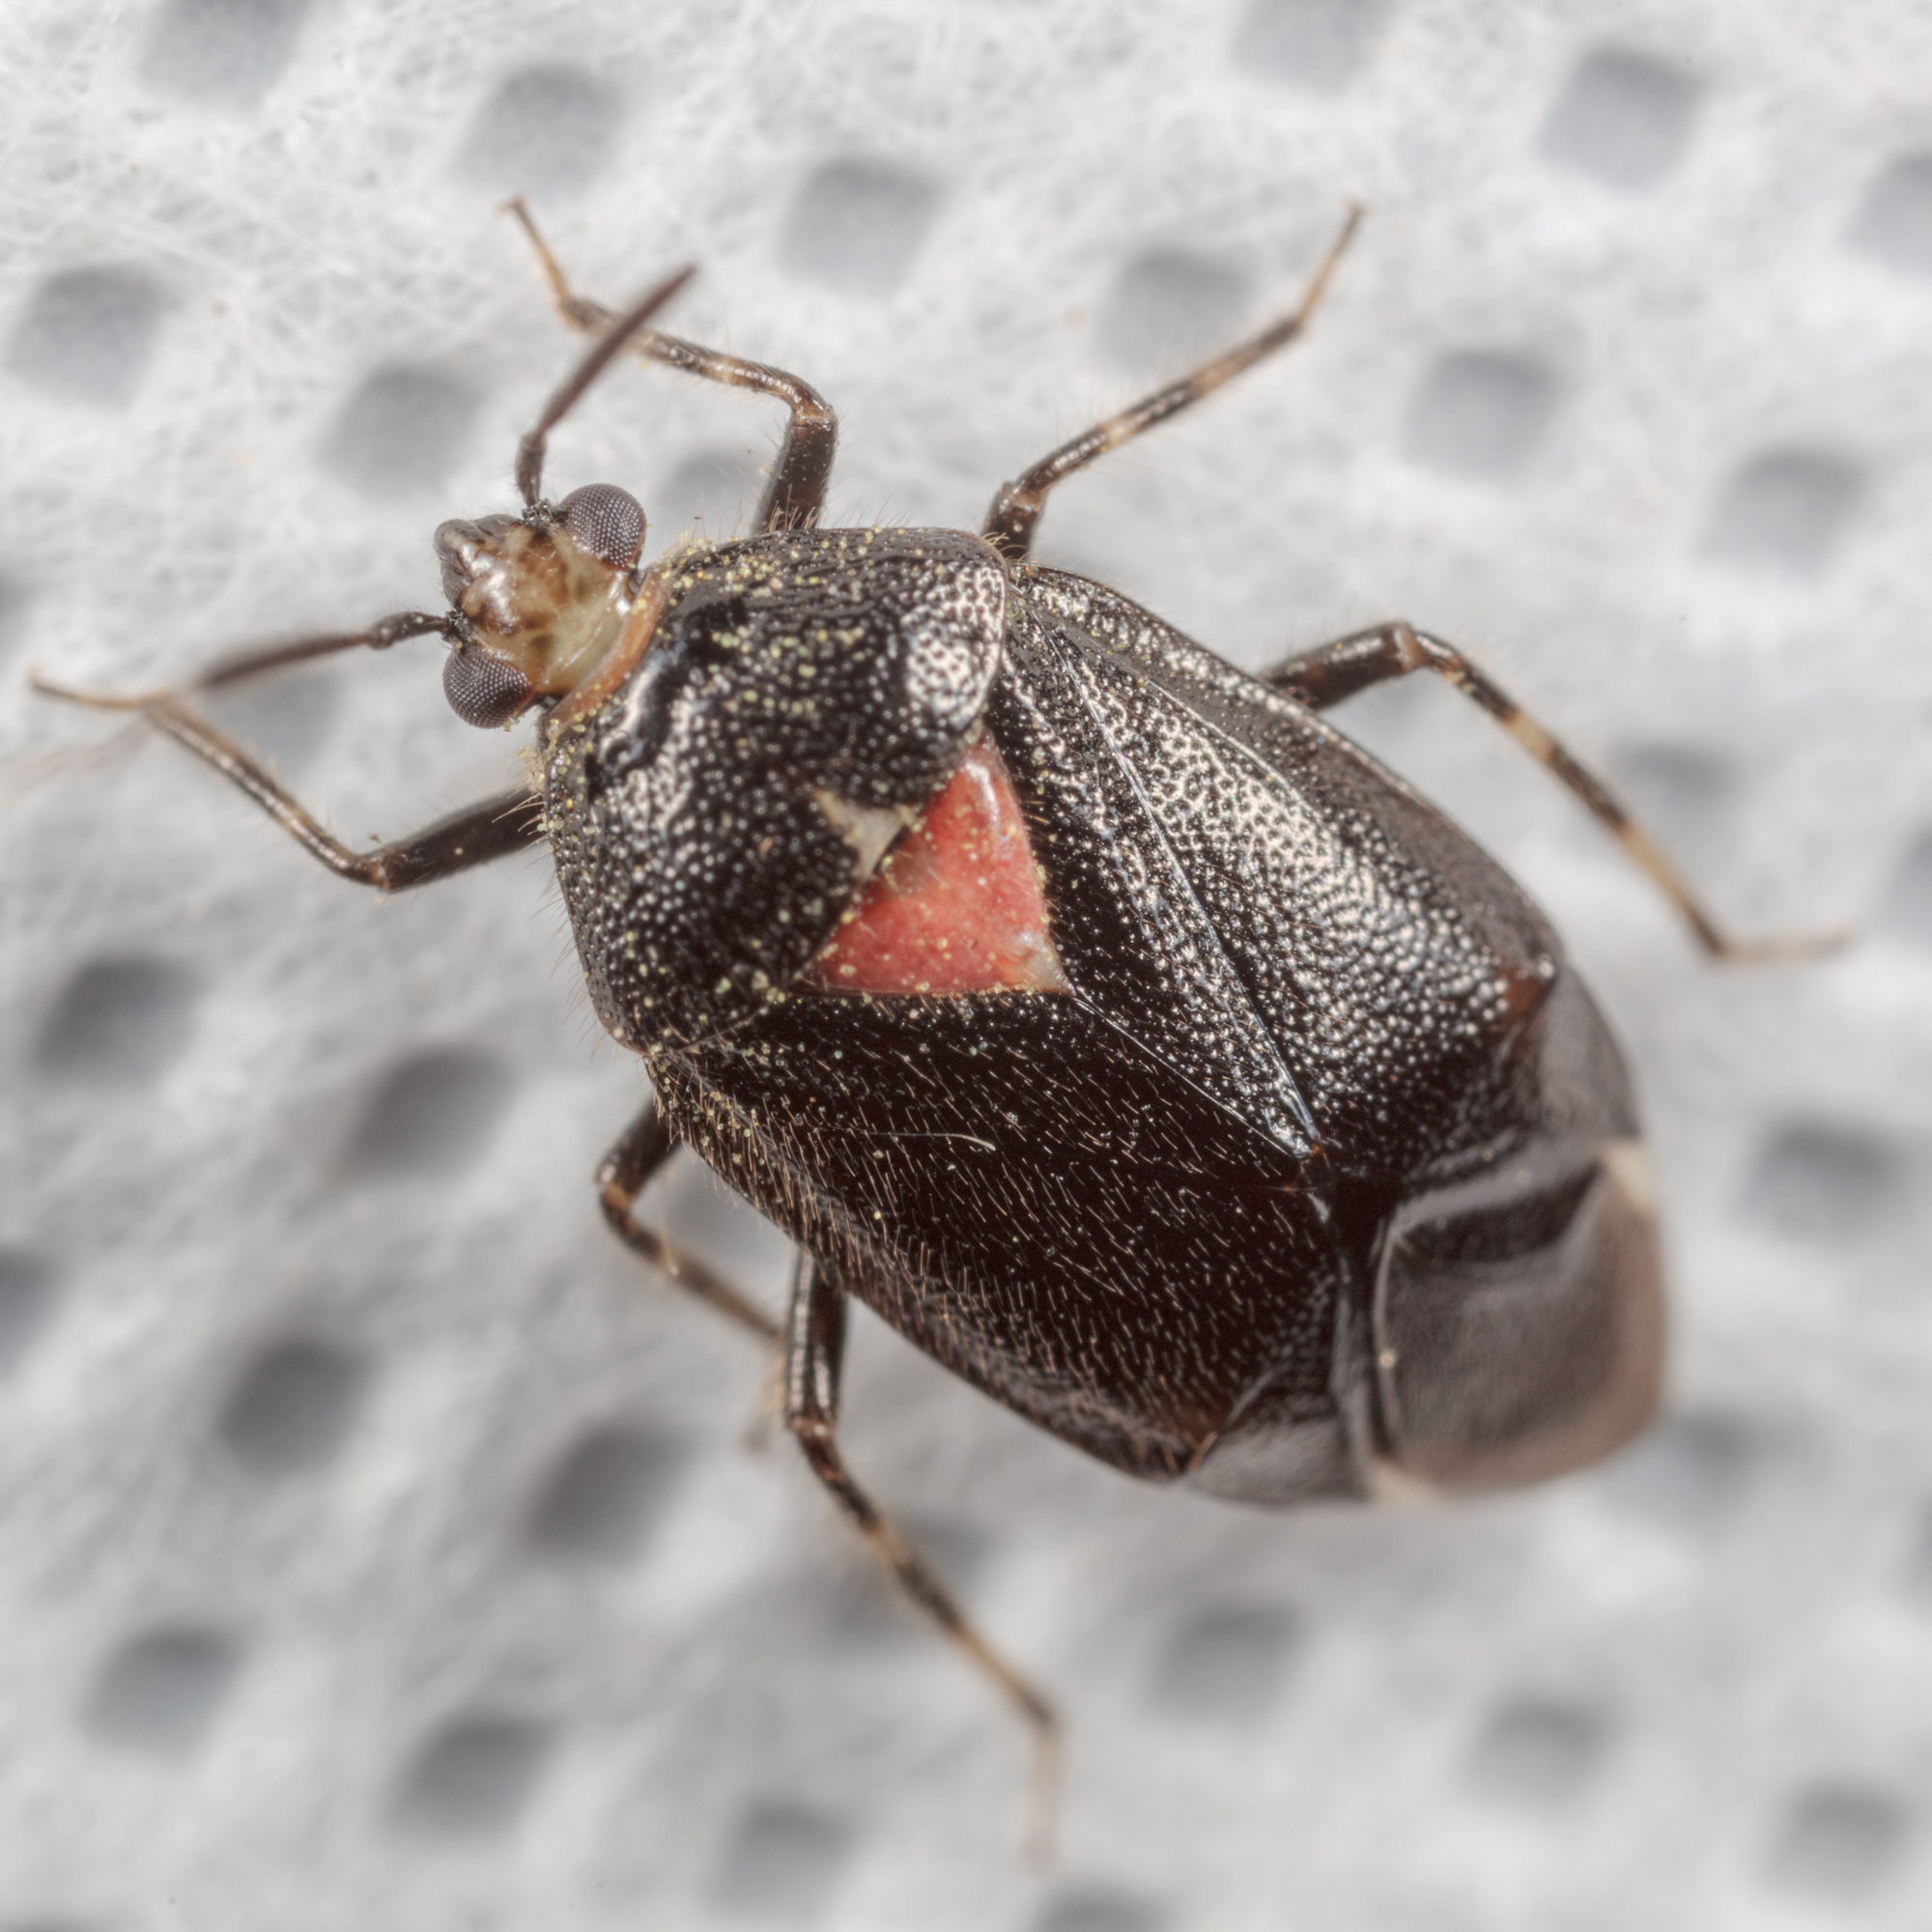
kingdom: Animalia
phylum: Arthropoda
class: Insecta
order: Hemiptera
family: Miridae
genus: Deraeocoris
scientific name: Deraeocoris sayi
